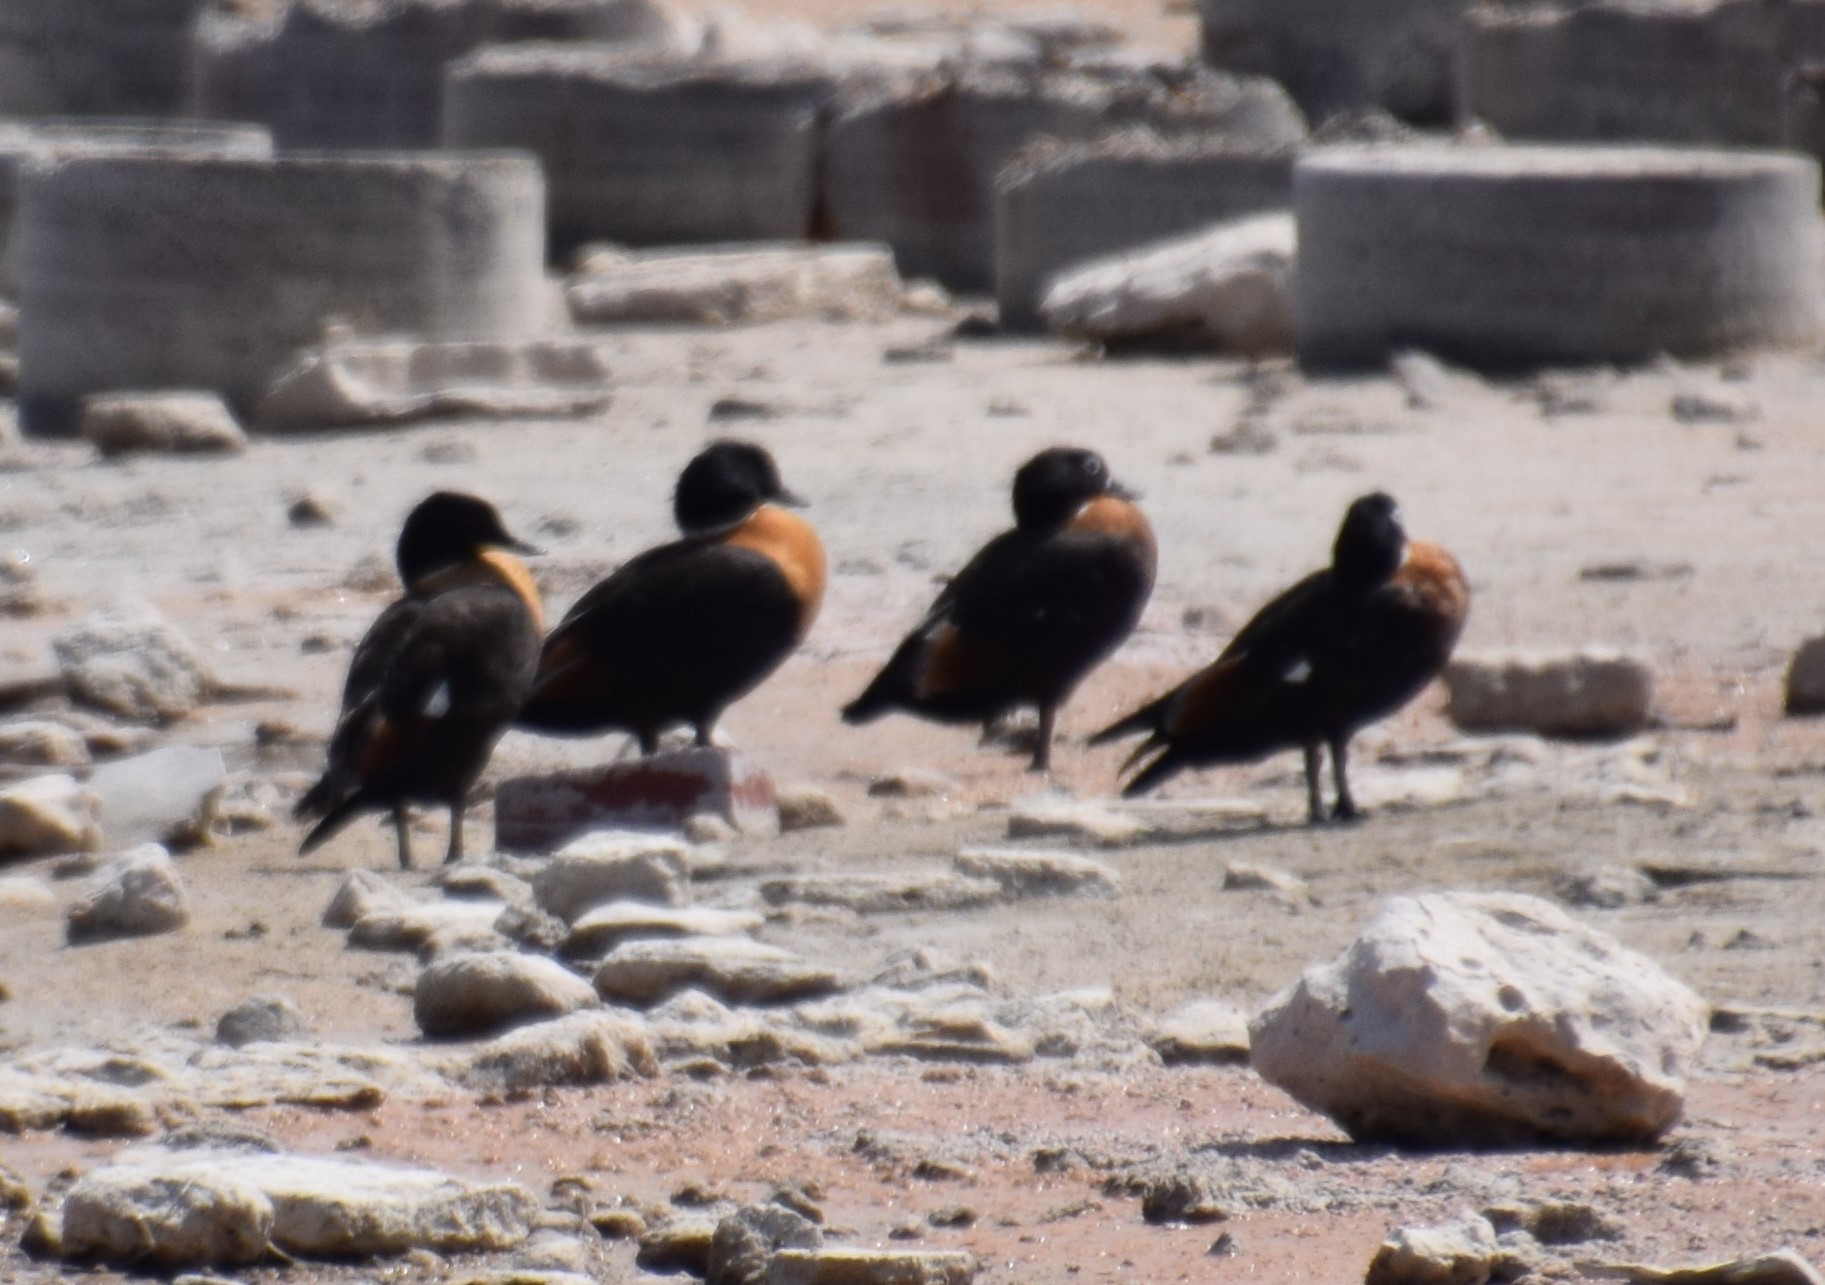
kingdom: Animalia
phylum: Chordata
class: Aves
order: Anseriformes
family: Anatidae
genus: Tadorna
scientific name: Tadorna tadornoides
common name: Australian shelduck
